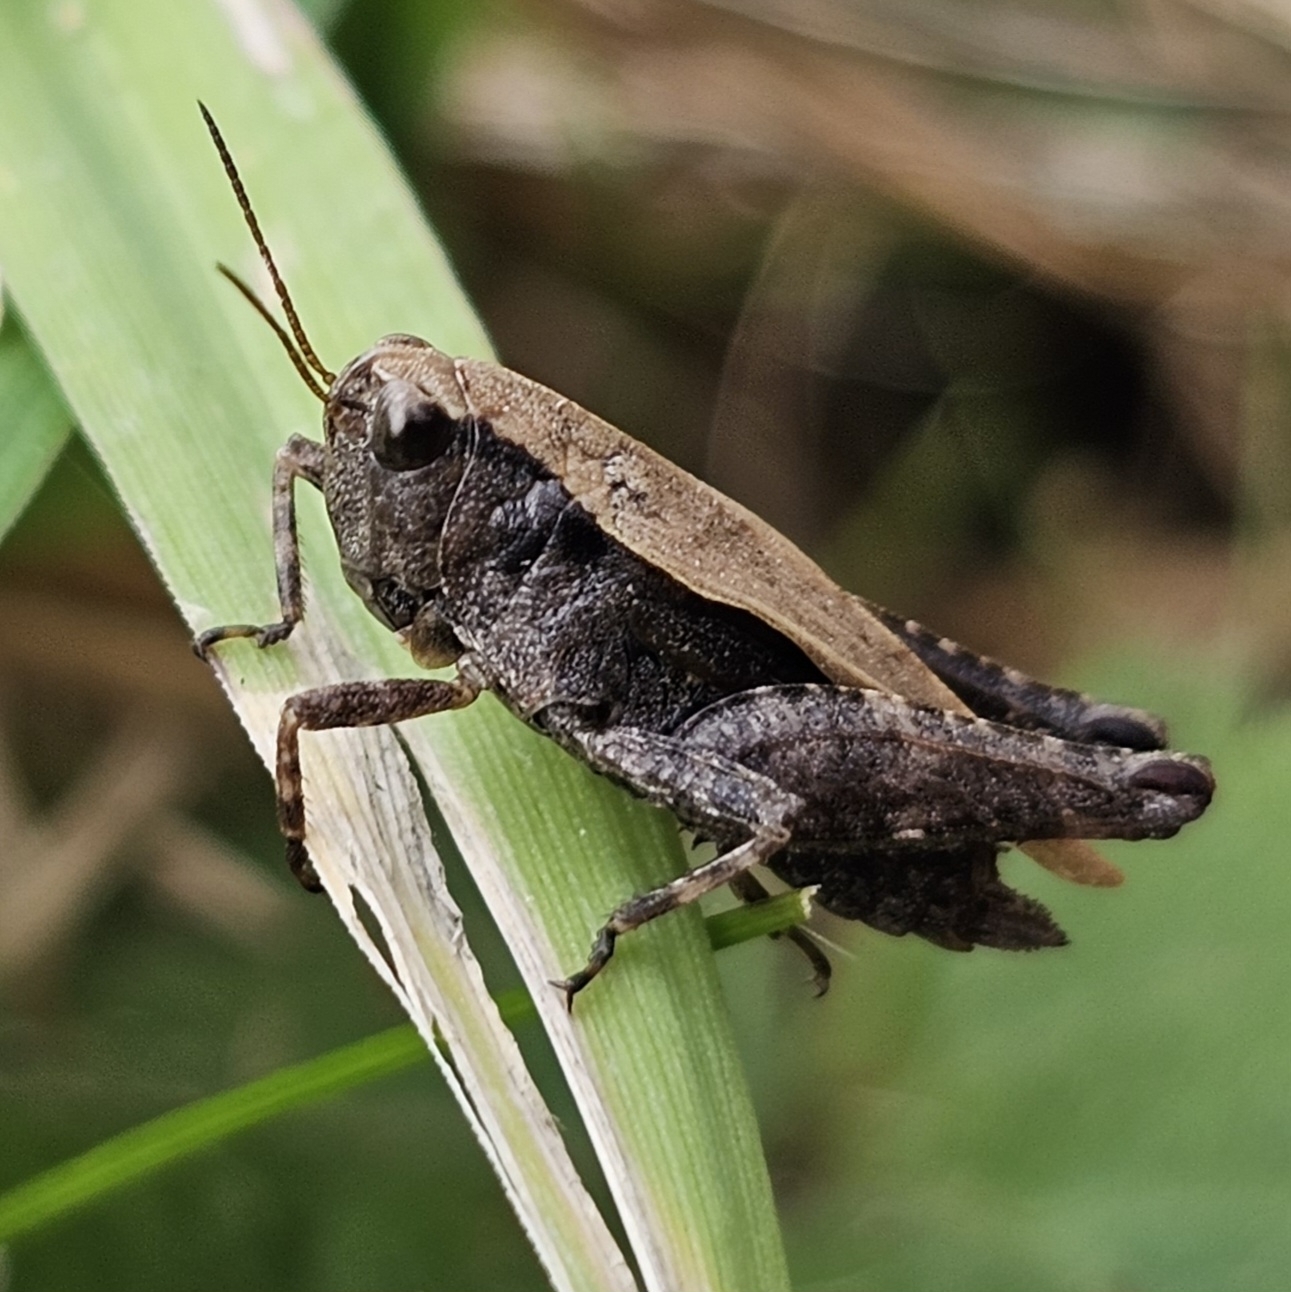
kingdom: Animalia
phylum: Arthropoda
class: Insecta
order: Orthoptera
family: Tetrigidae
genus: Tettigidea
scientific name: Tettigidea laterale
